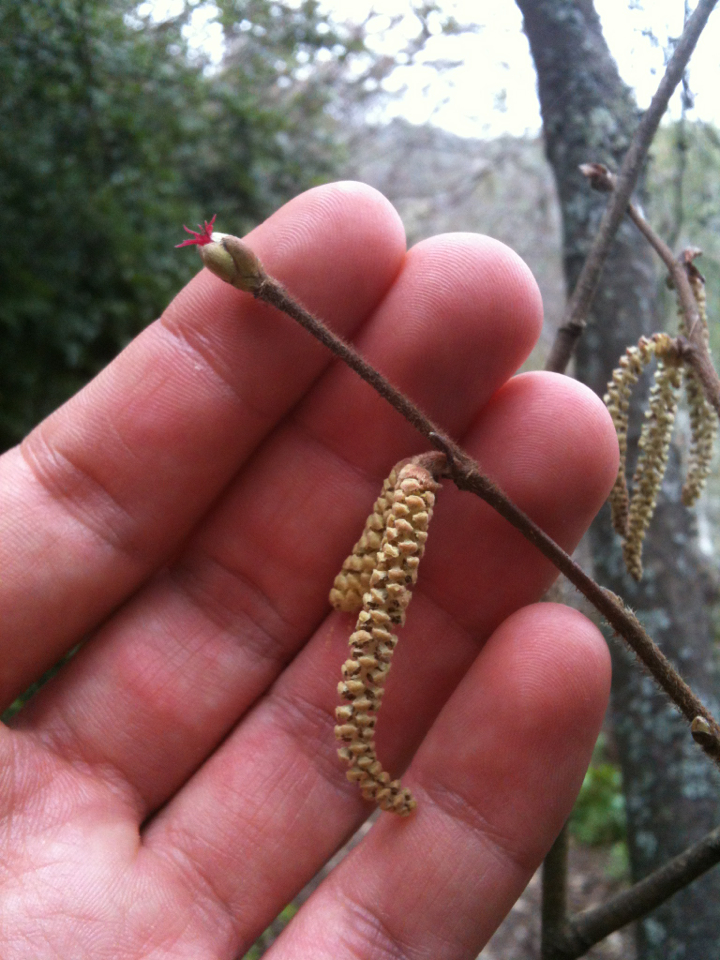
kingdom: Plantae
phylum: Tracheophyta
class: Magnoliopsida
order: Fagales
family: Betulaceae
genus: Corylus
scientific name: Corylus cornuta
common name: Beaked hazel
